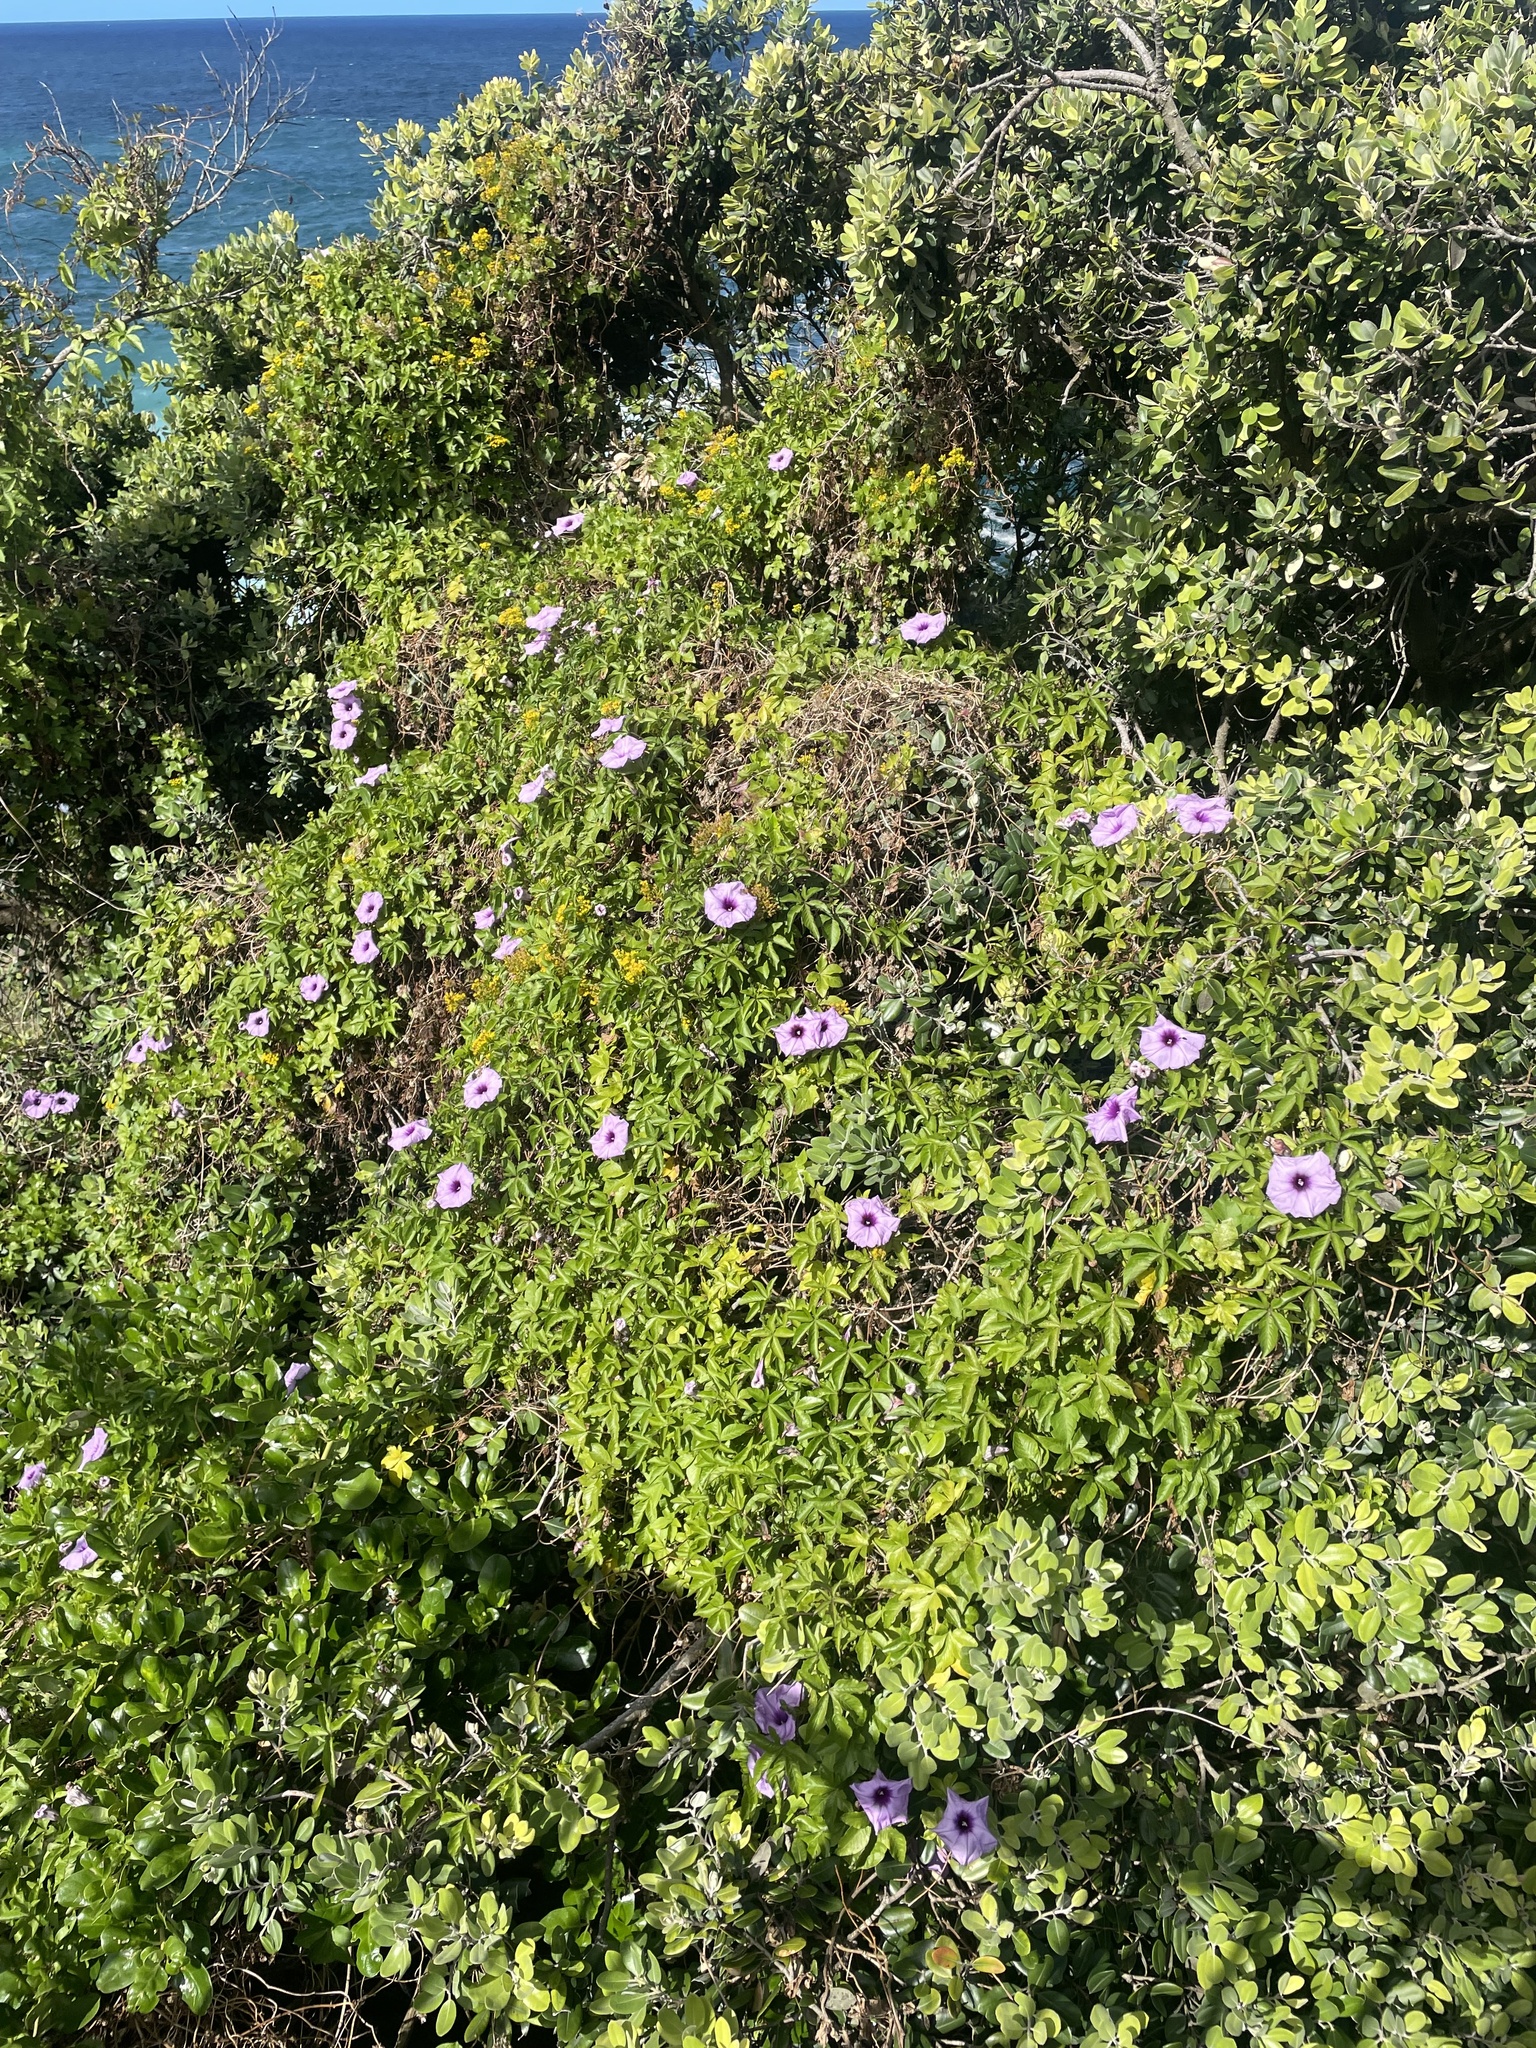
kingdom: Plantae
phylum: Tracheophyta
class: Magnoliopsida
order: Solanales
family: Convolvulaceae
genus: Ipomoea
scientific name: Ipomoea cairica
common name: Mile a minute vine
